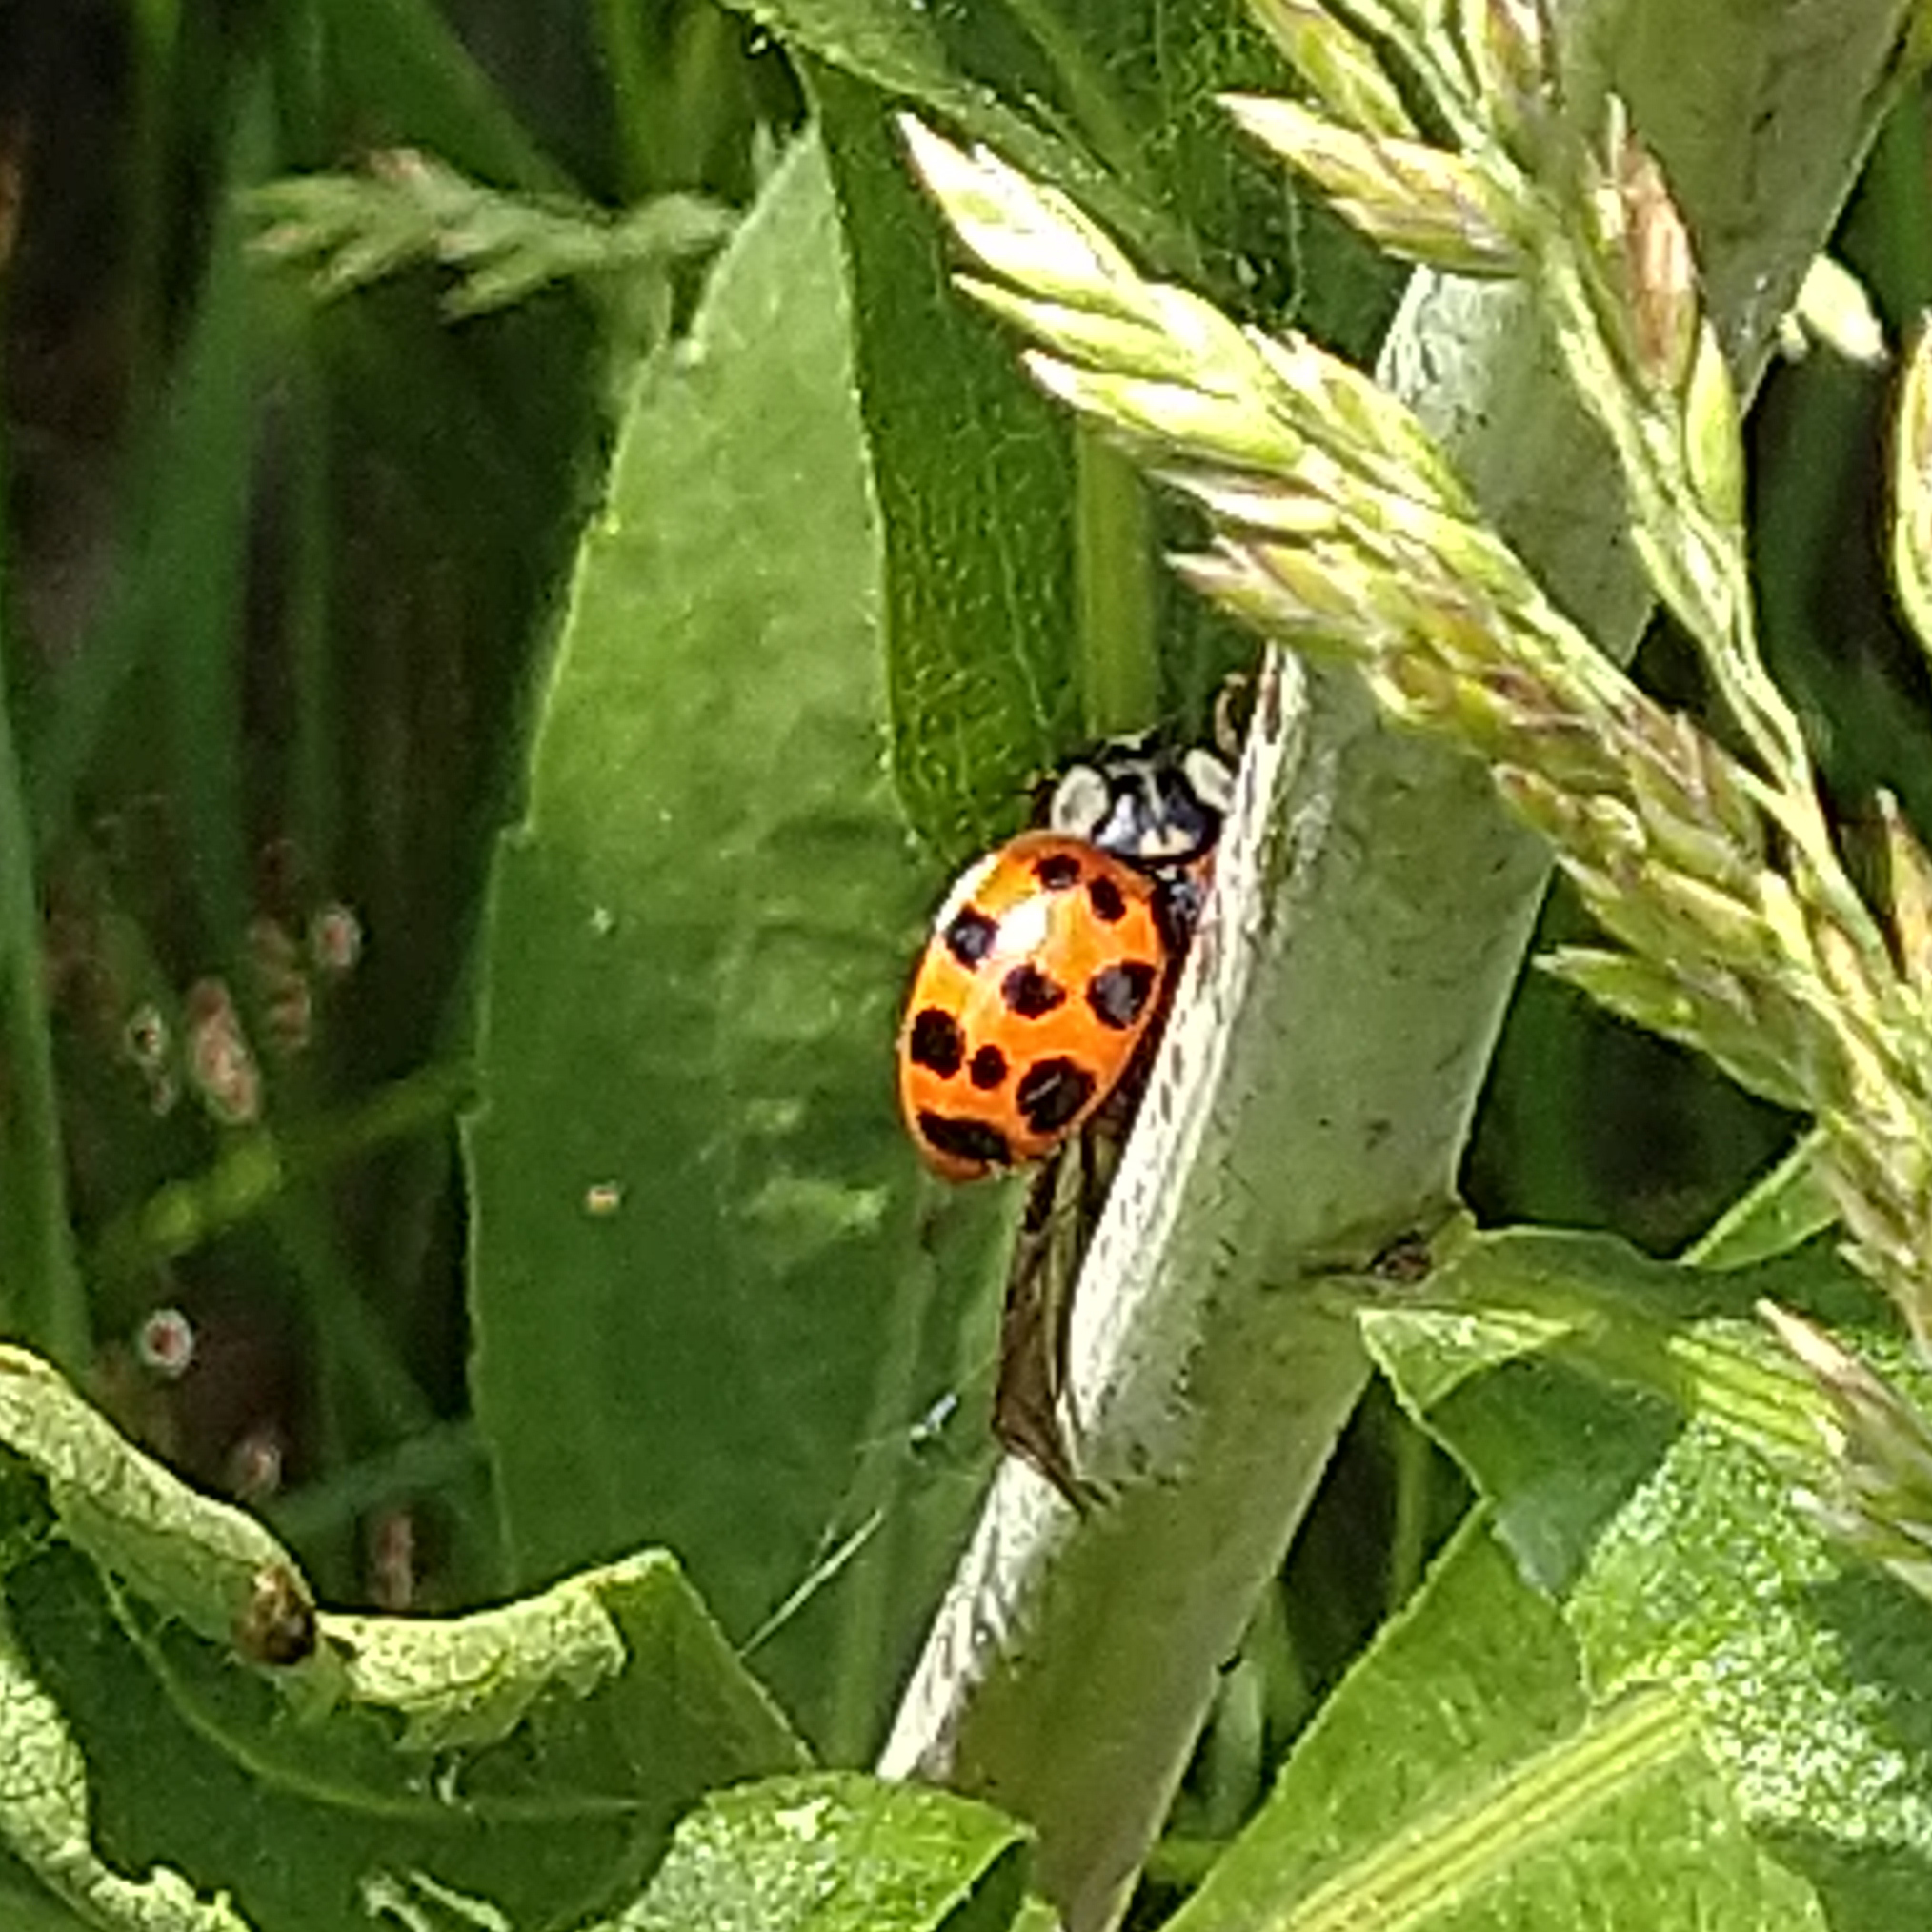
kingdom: Animalia
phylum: Arthropoda
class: Insecta
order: Coleoptera
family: Coccinellidae
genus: Harmonia
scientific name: Harmonia axyridis
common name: Harlequin ladybird
